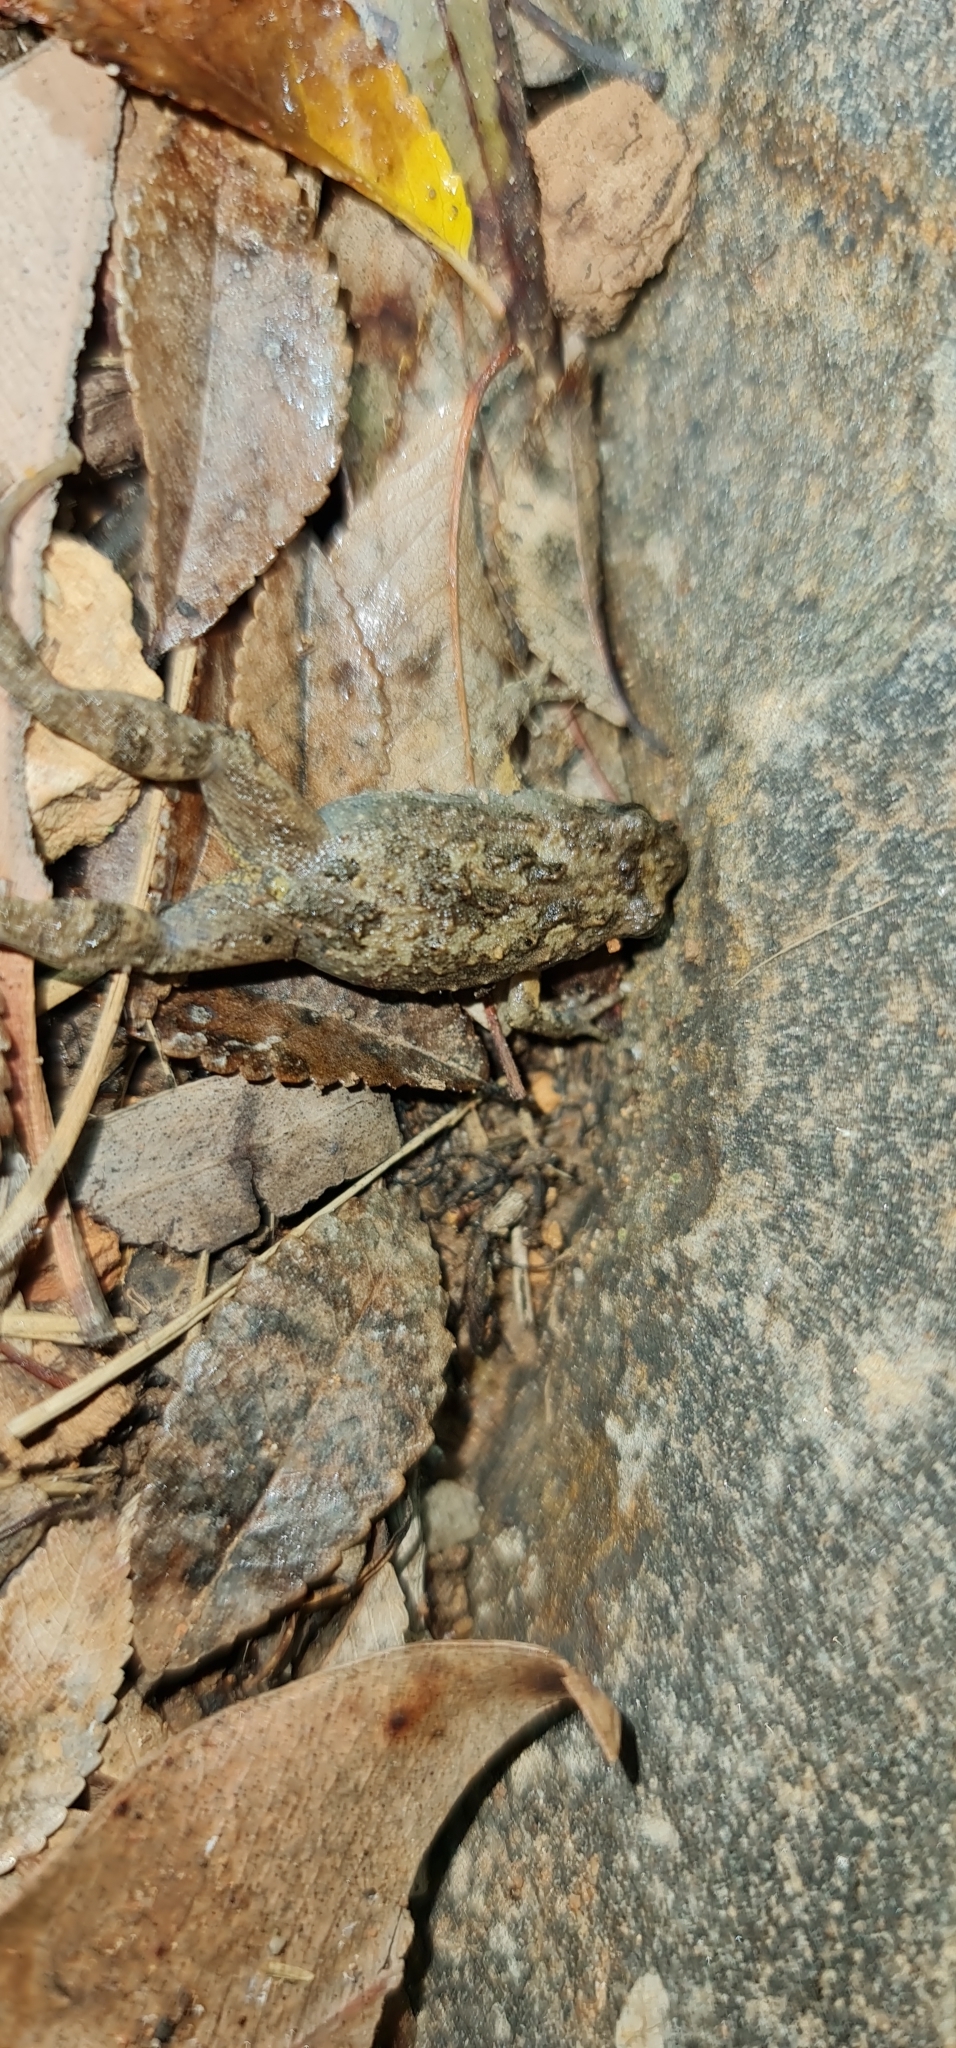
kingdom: Animalia
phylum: Chordata
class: Amphibia
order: Anura
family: Myobatrachidae
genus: Crinia
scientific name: Crinia signifera
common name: Brown froglet
